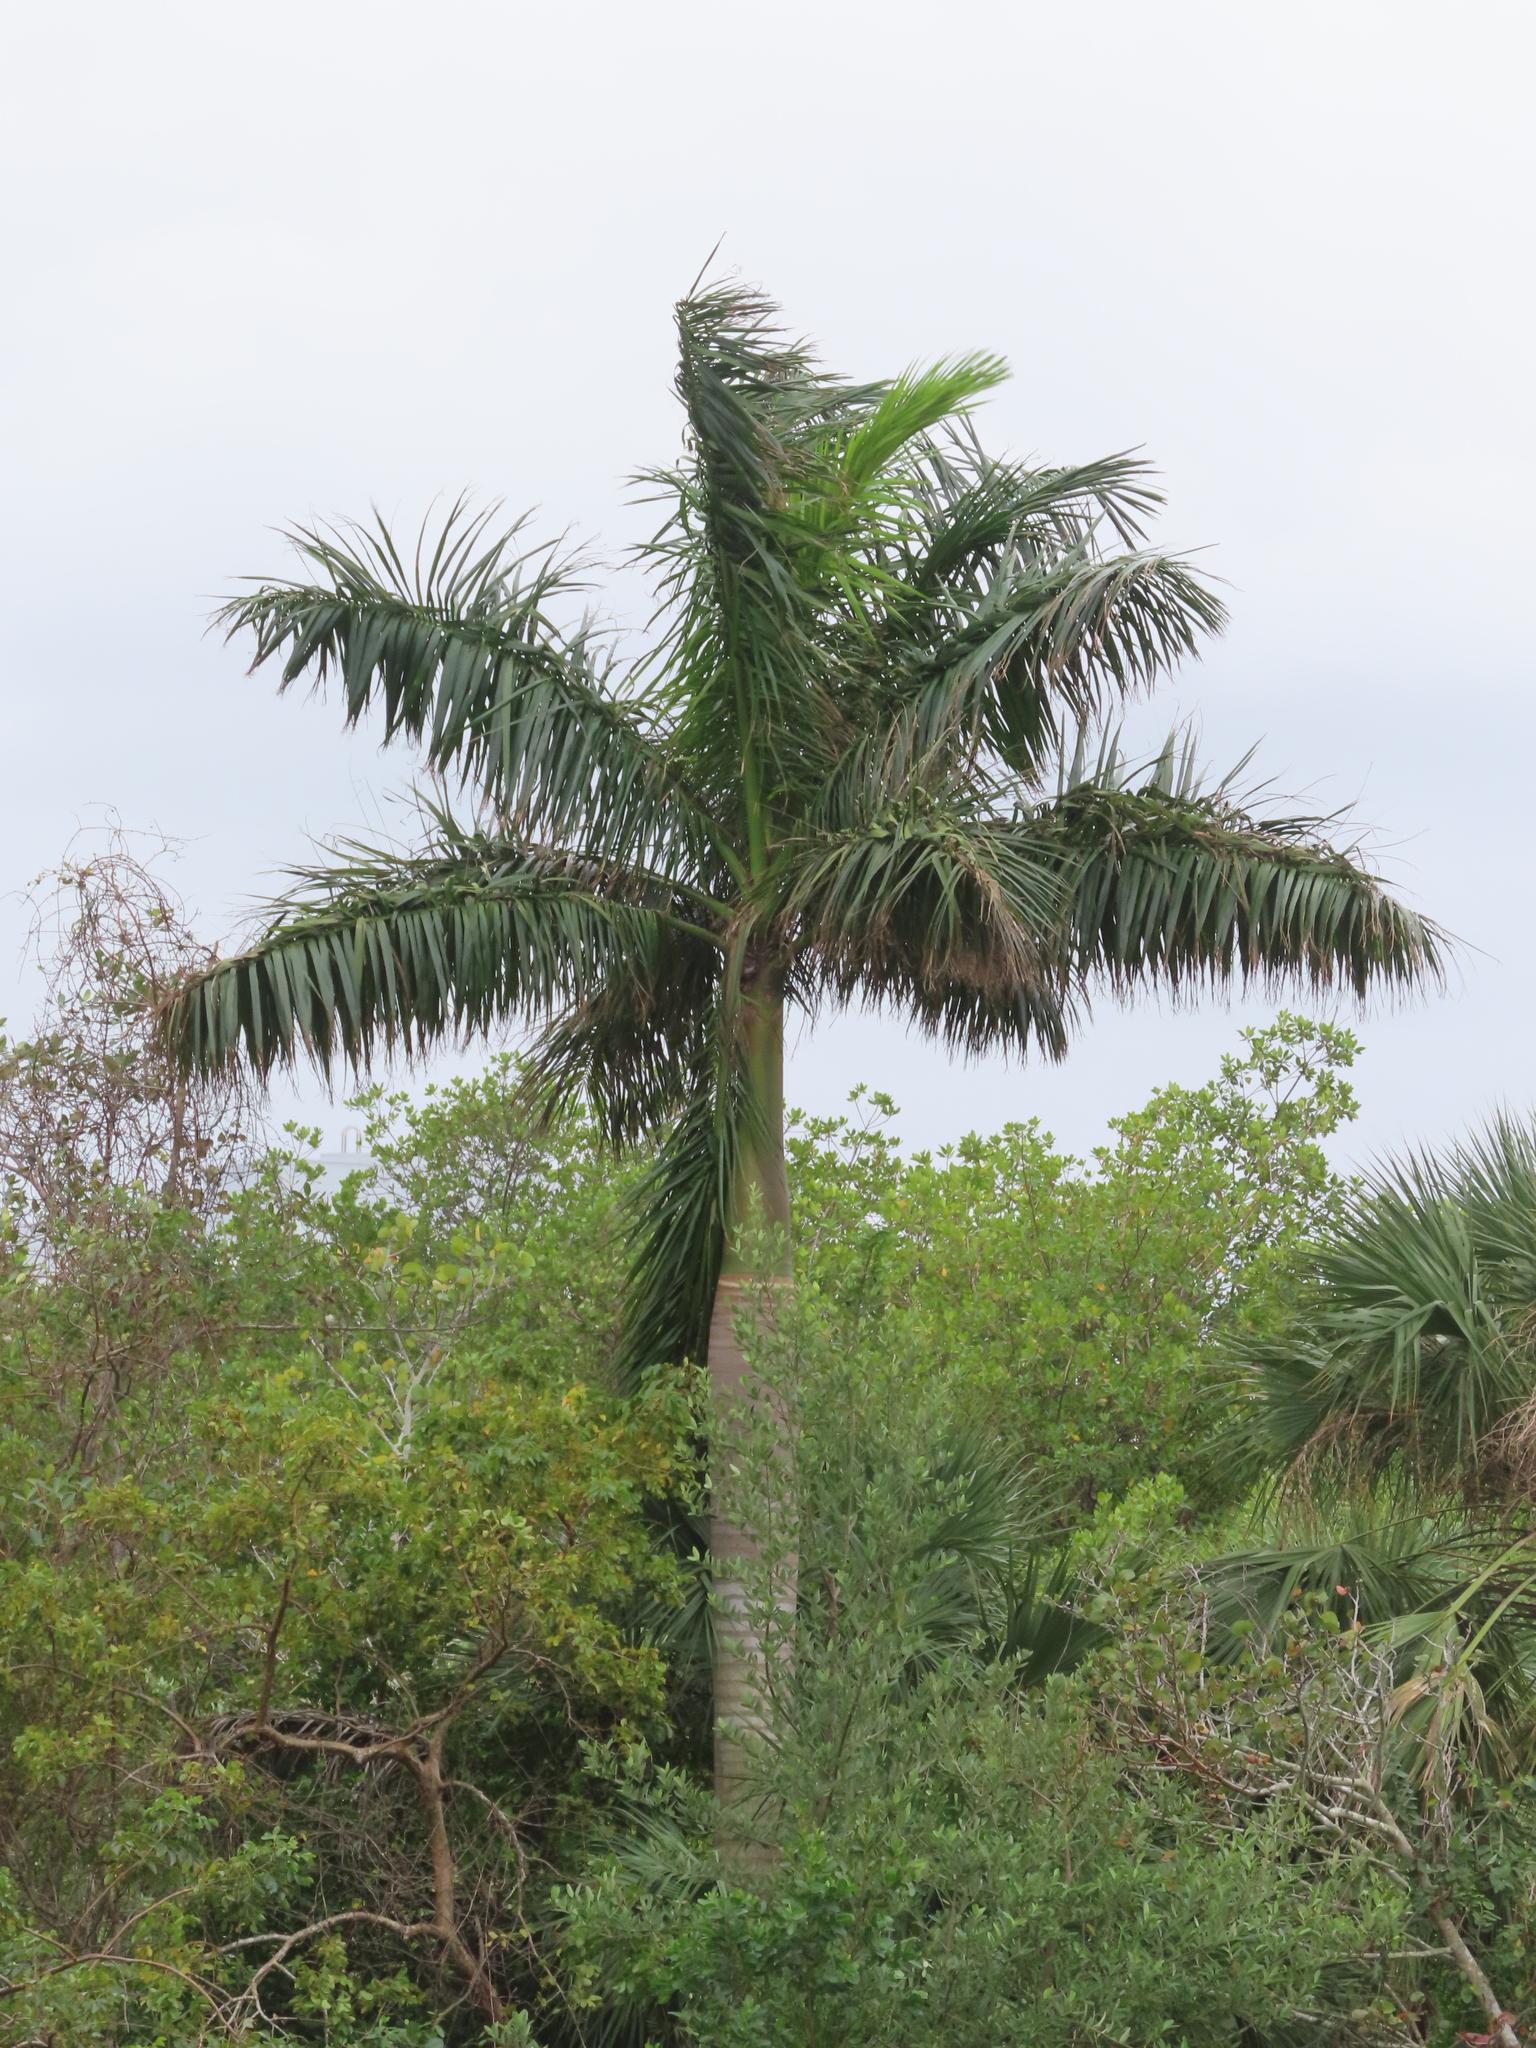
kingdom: Plantae
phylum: Tracheophyta
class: Liliopsida
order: Arecales
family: Arecaceae
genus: Roystonea
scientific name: Roystonea regia
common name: Florida royal palm
